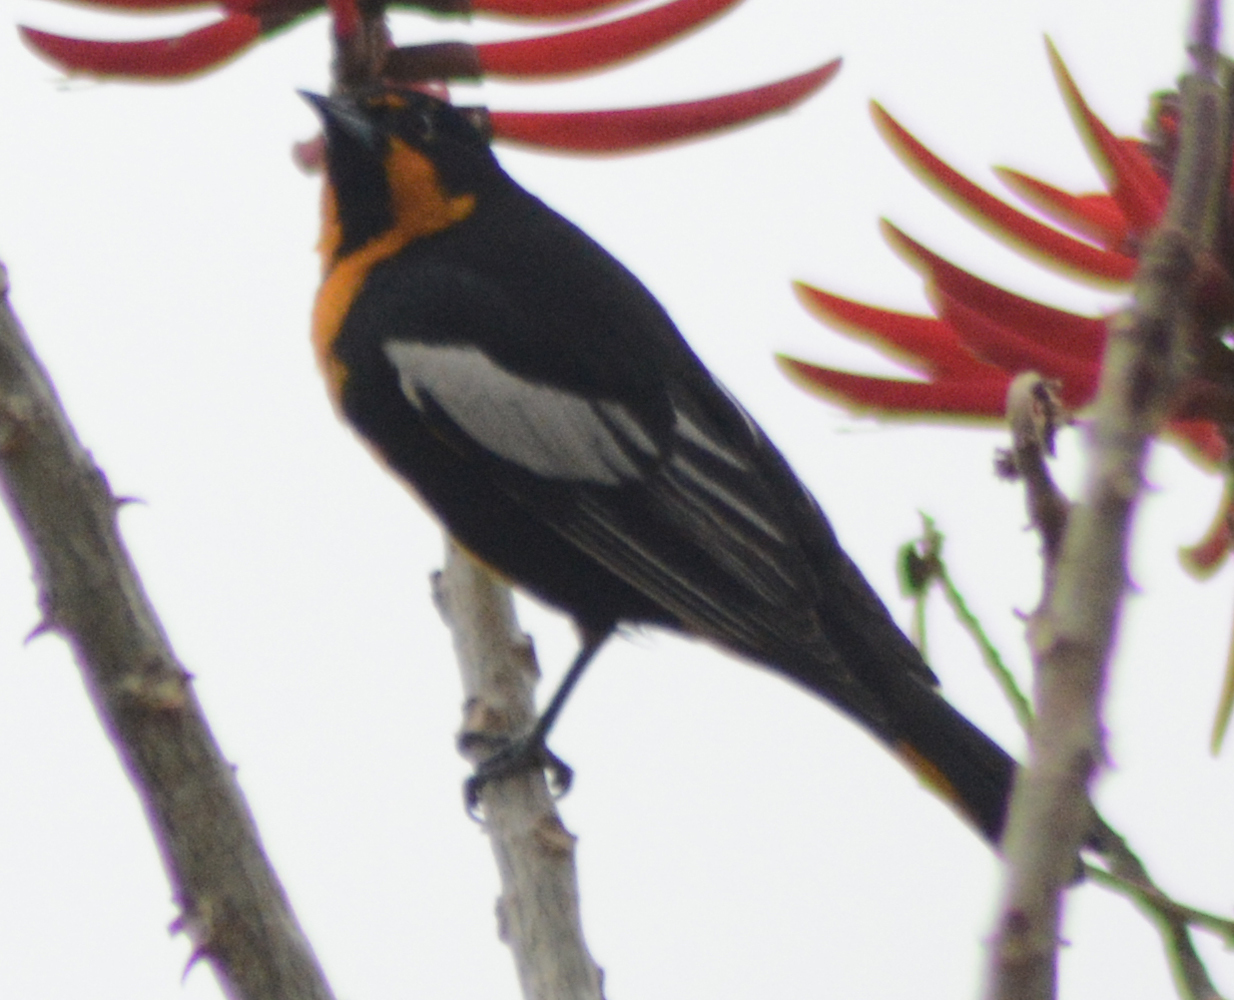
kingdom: Animalia
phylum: Chordata
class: Aves
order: Passeriformes
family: Icteridae
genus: Icterus
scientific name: Icterus abeillei
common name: Black-backed oriole
